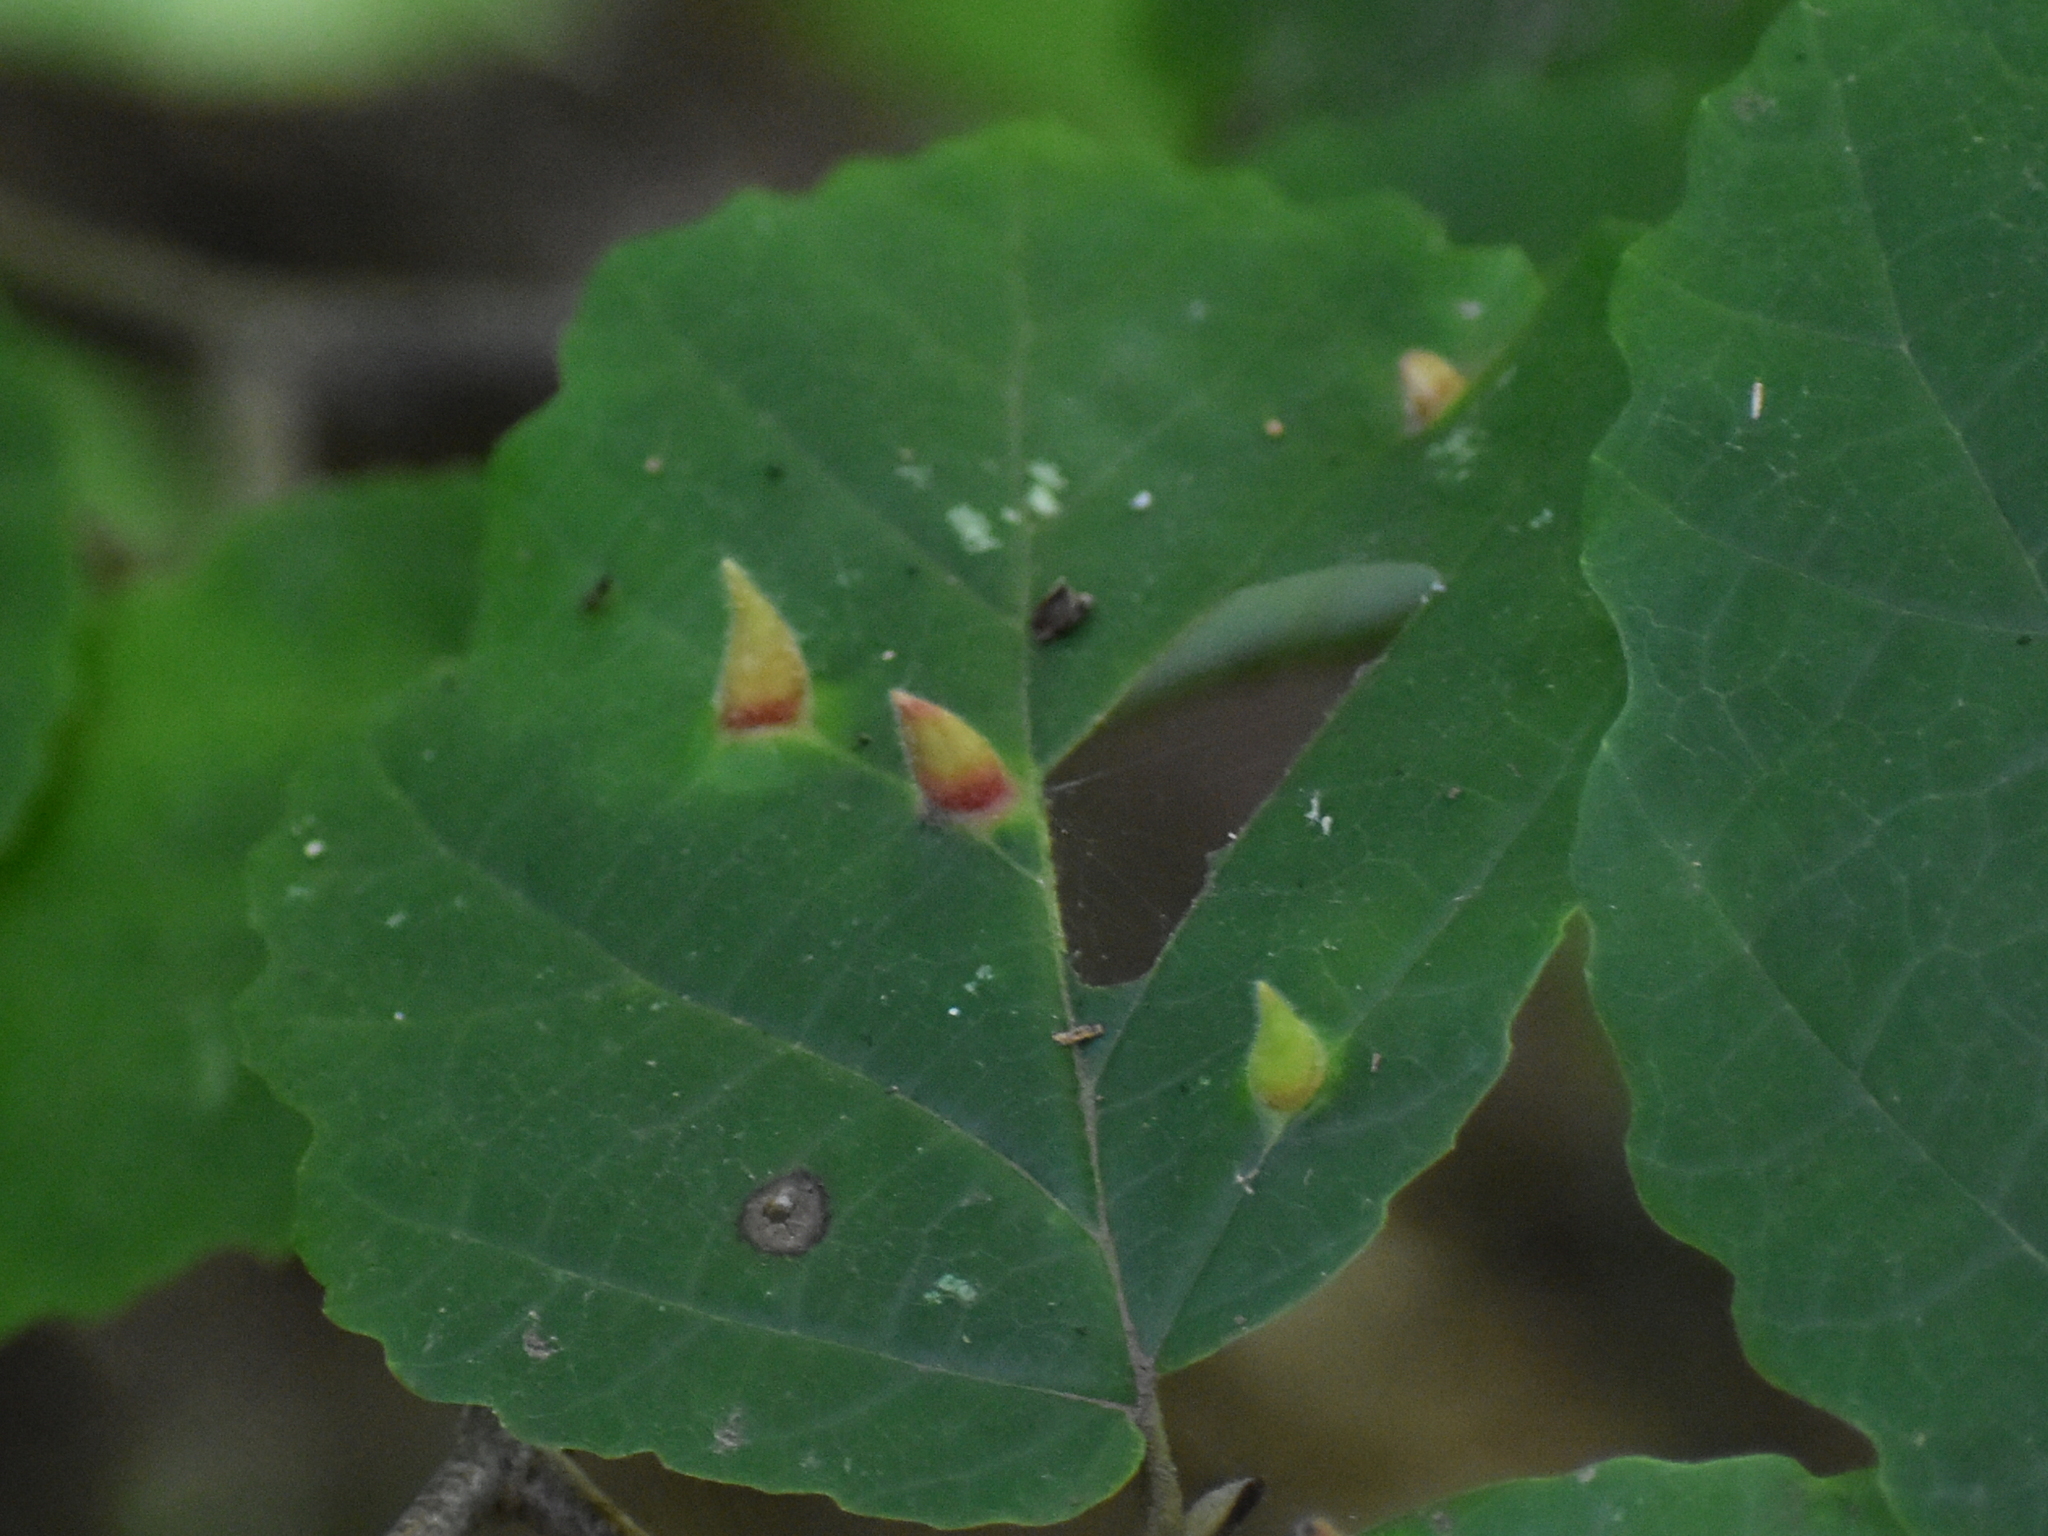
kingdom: Animalia
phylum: Arthropoda
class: Insecta
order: Hemiptera
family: Aphididae
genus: Hormaphis
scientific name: Hormaphis hamamelidis
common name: Witch-hazel cone gall aphid
